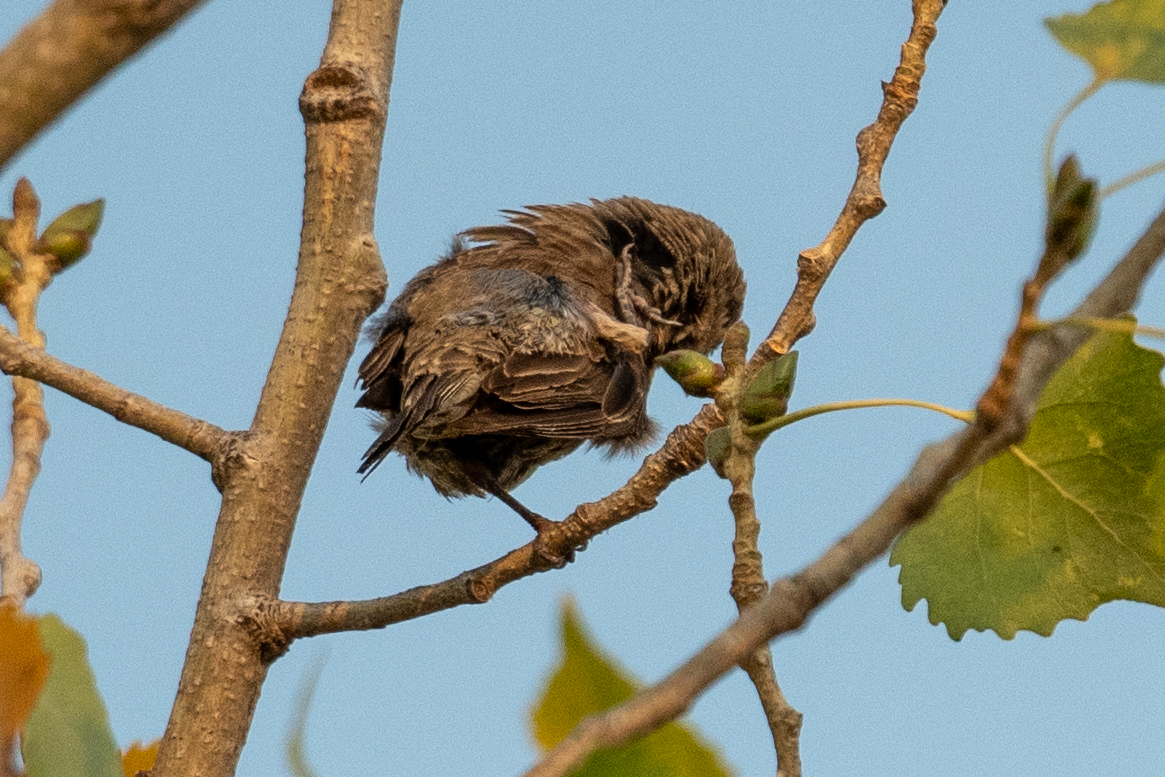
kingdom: Animalia
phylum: Chordata
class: Aves
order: Passeriformes
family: Fringillidae
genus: Haemorhous
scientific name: Haemorhous mexicanus
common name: House finch
